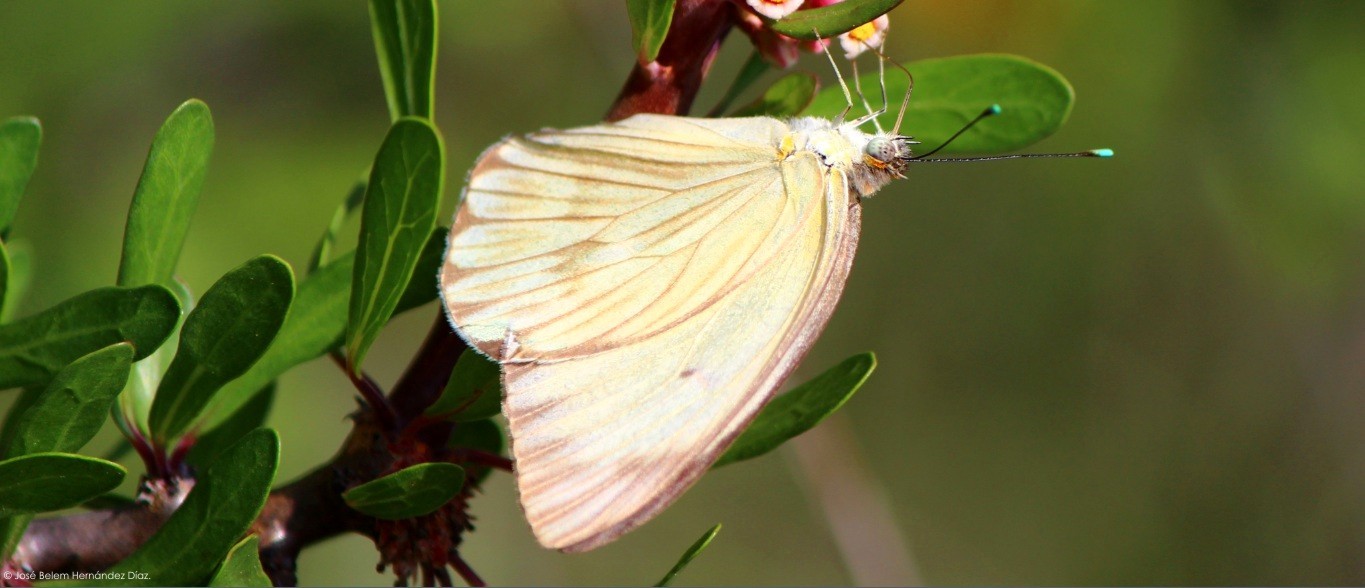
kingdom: Animalia
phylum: Arthropoda
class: Insecta
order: Lepidoptera
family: Pieridae
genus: Ascia
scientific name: Ascia monuste
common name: Great southern white
